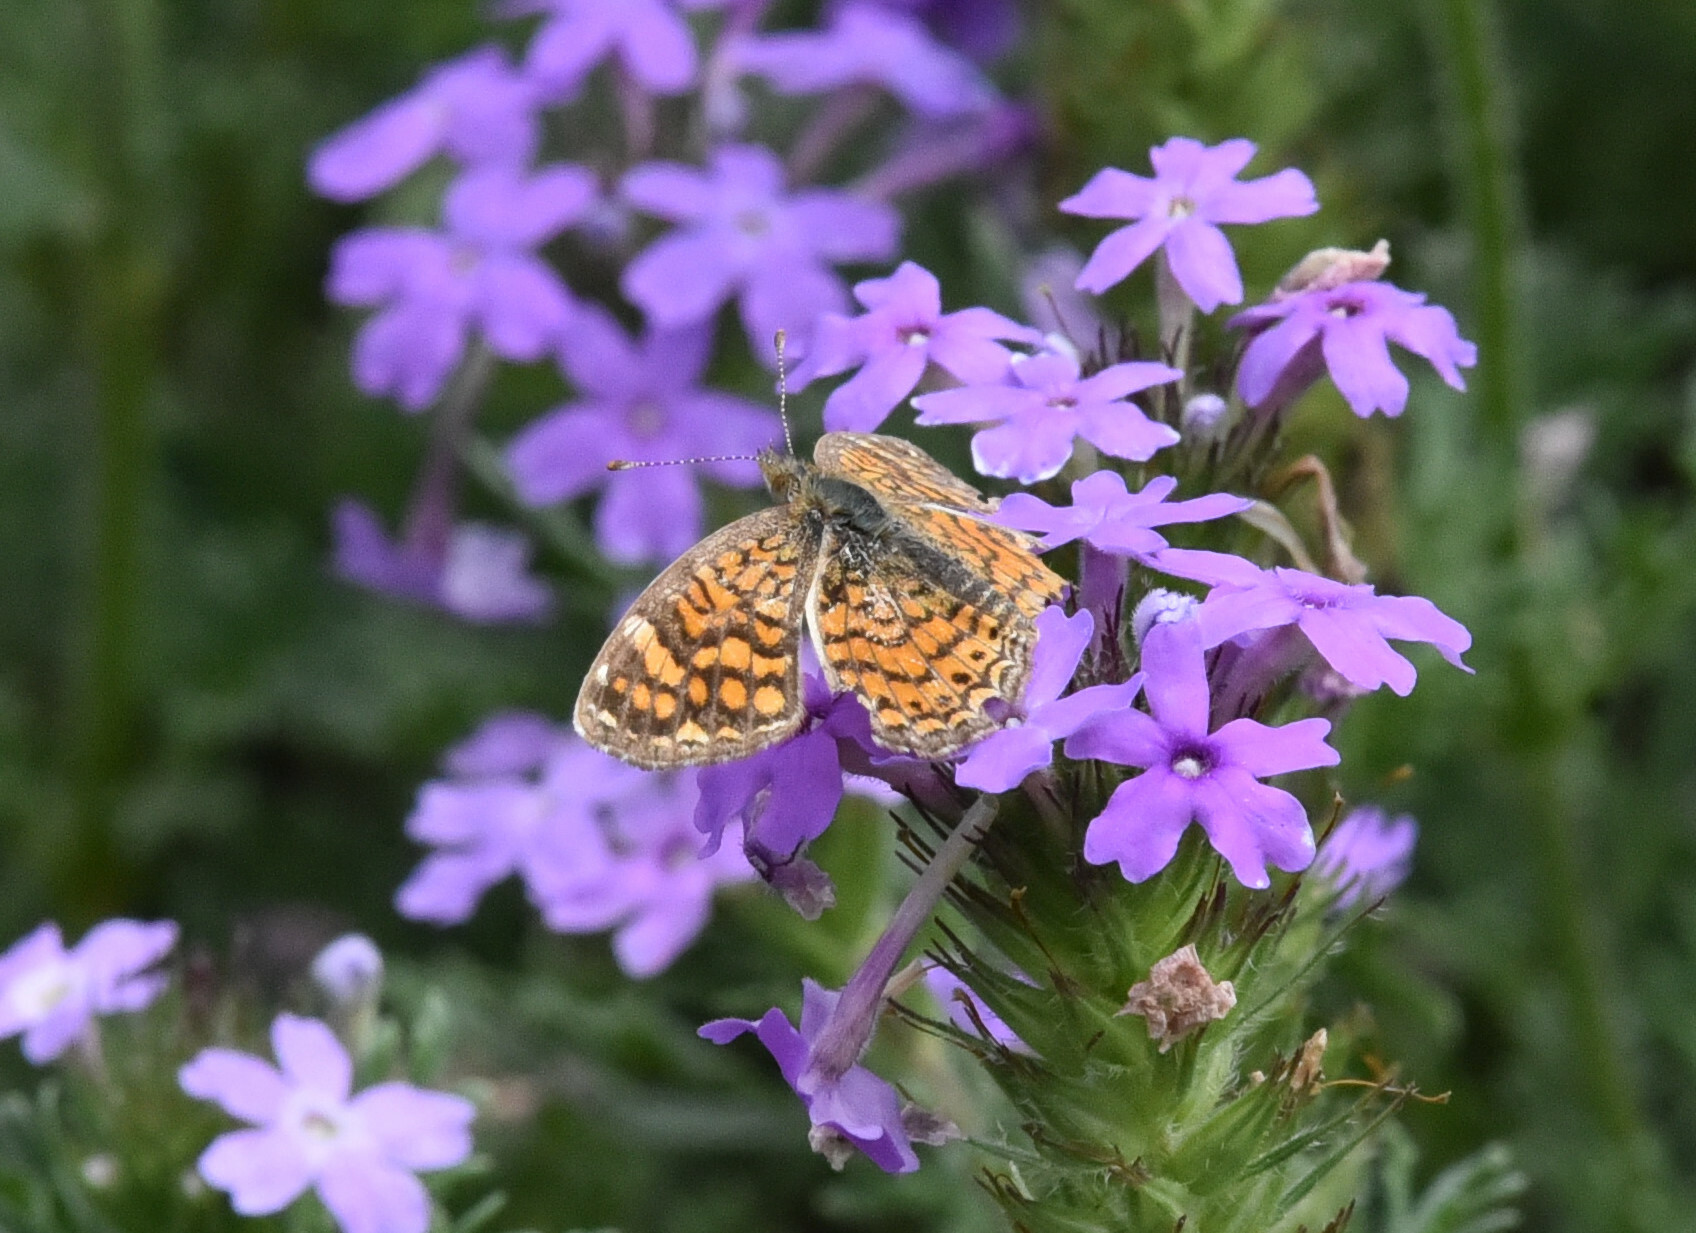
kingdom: Animalia
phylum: Arthropoda
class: Insecta
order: Lepidoptera
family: Nymphalidae
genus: Phyciodes
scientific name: Phyciodes vesta
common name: Vesta crescent
